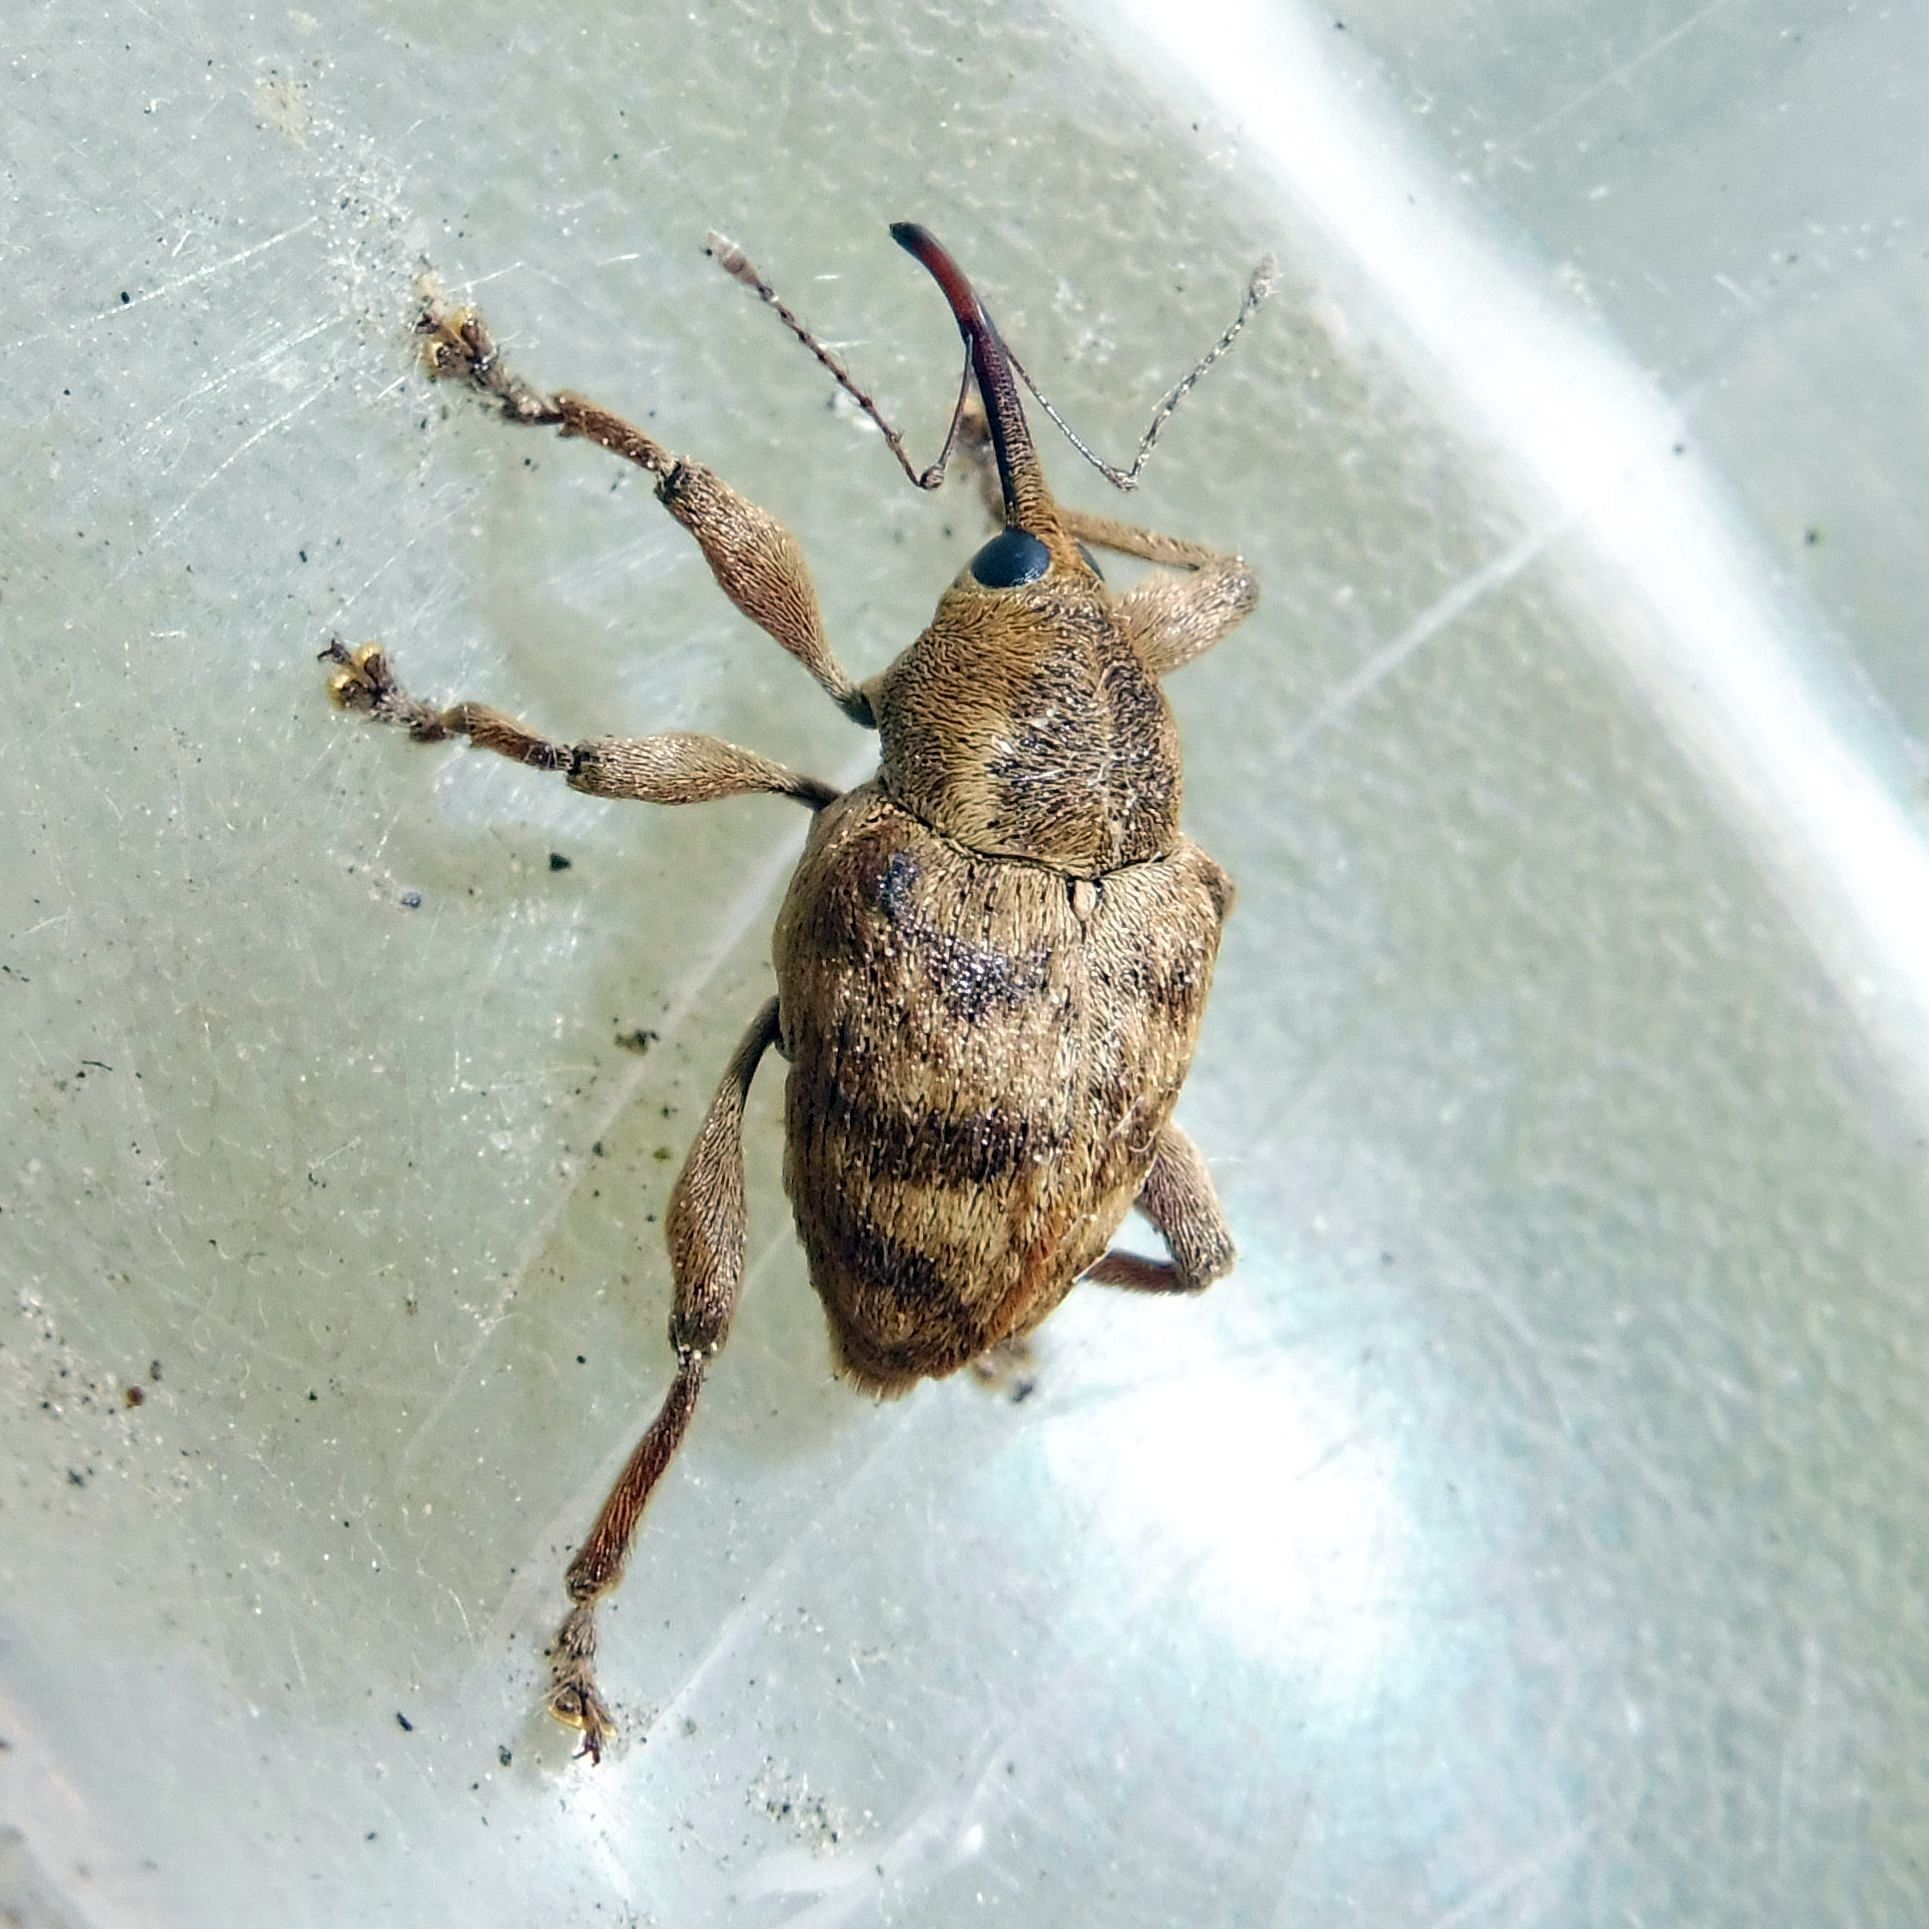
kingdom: Animalia
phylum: Arthropoda
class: Insecta
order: Coleoptera
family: Curculionidae
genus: Curculio
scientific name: Curculio venosus
